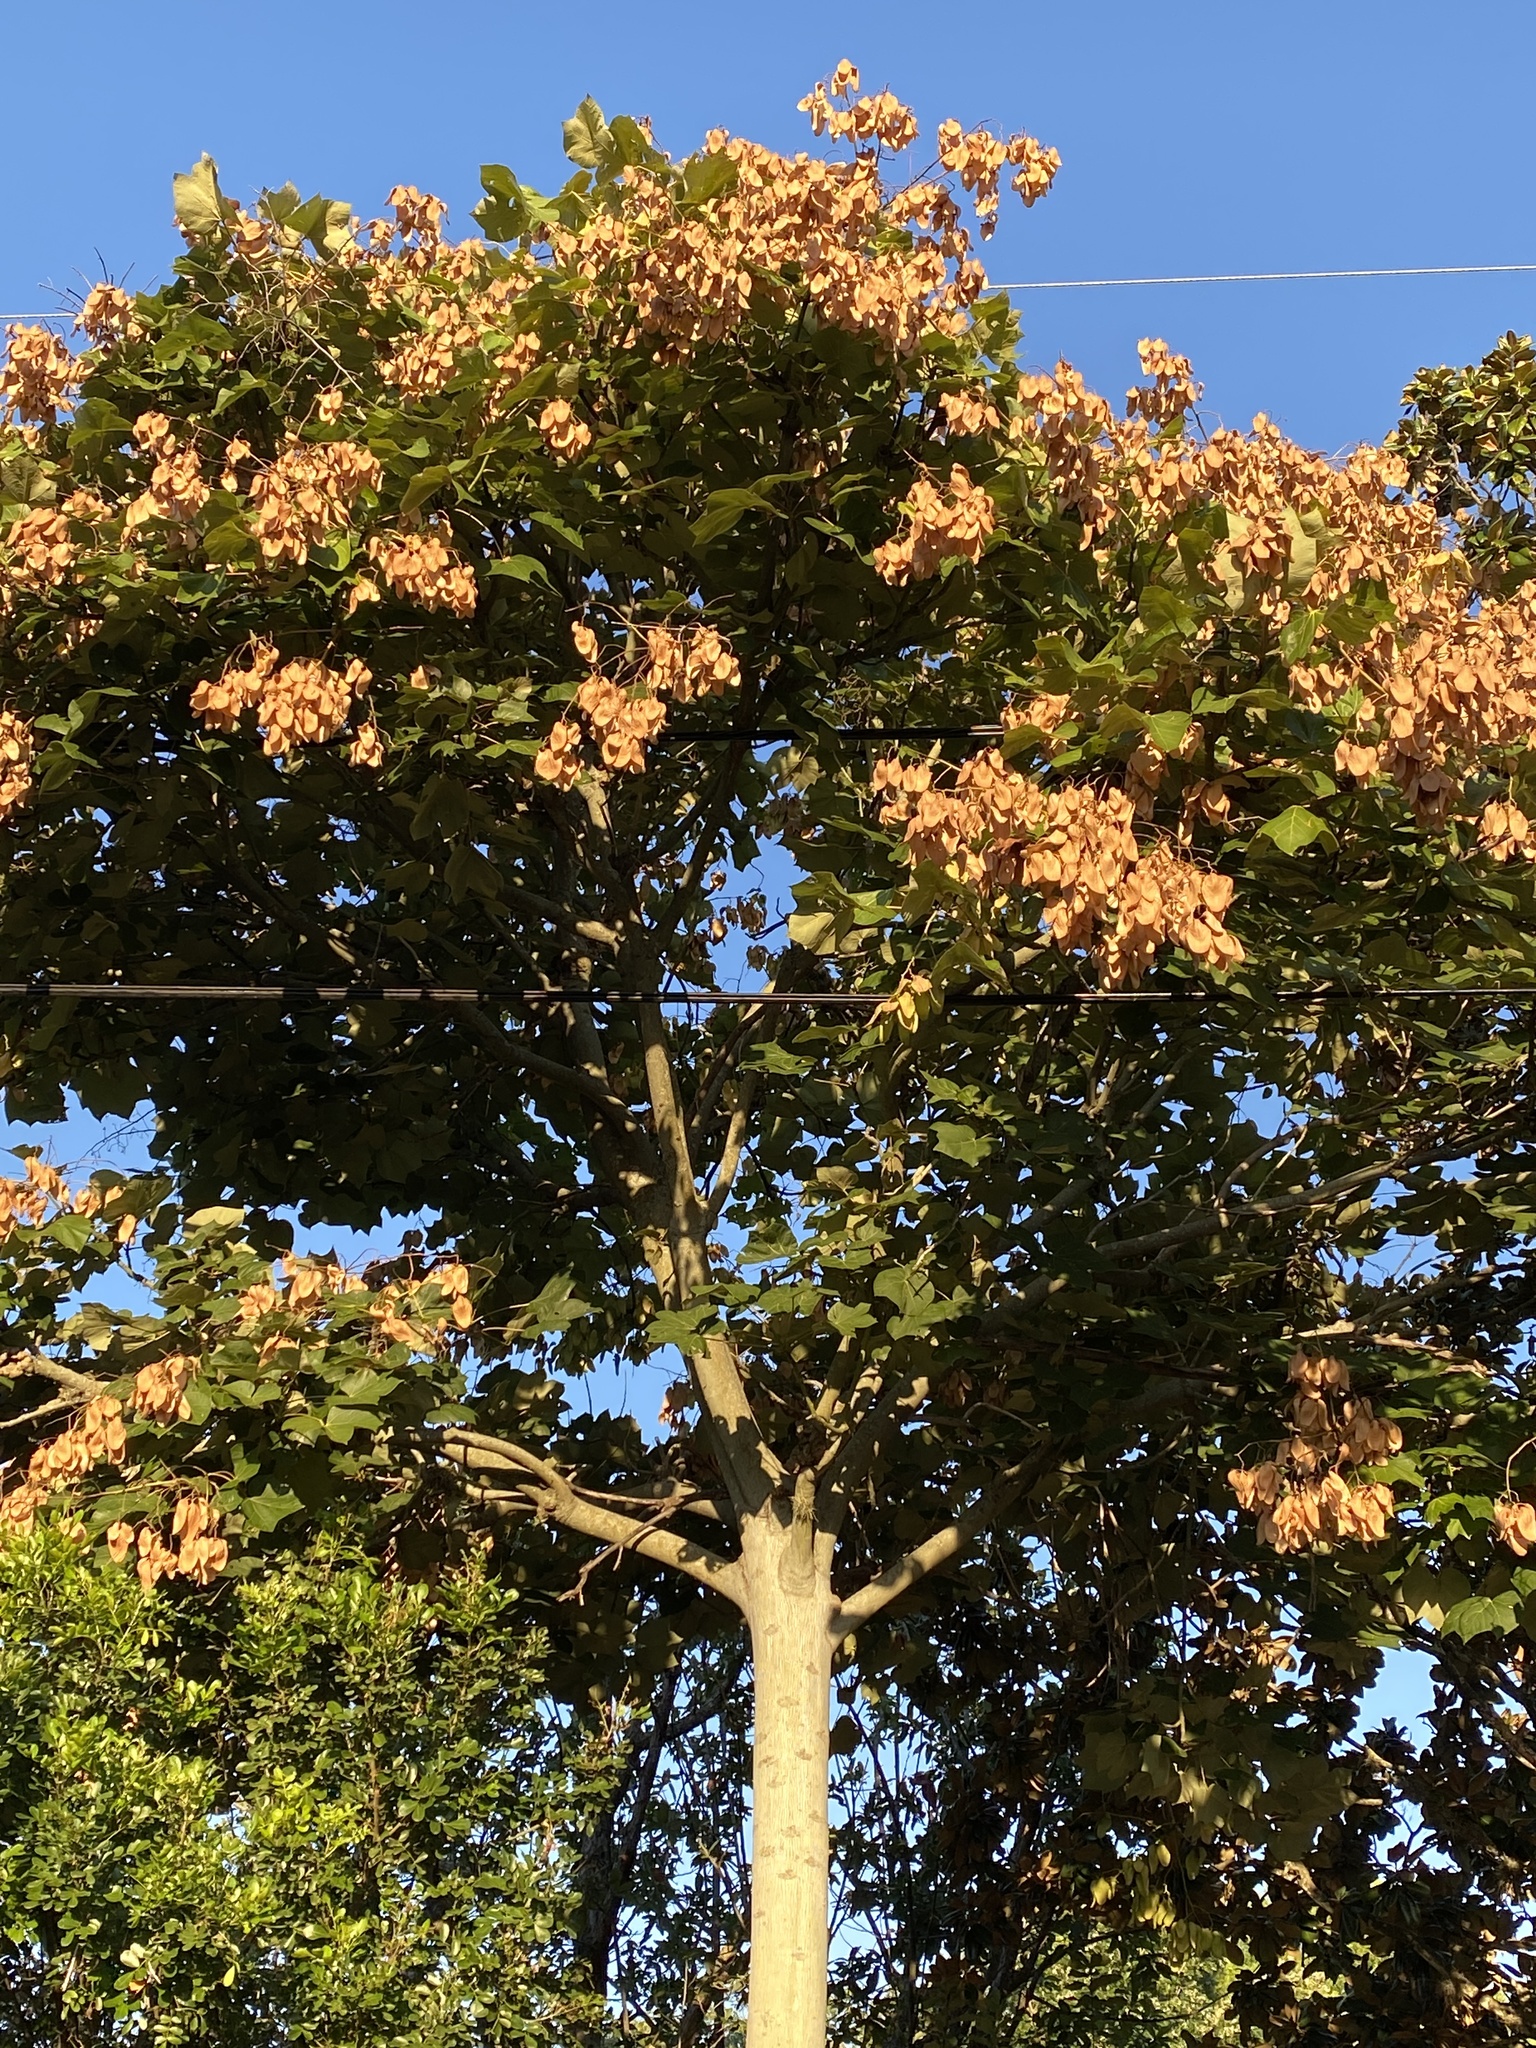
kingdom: Plantae
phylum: Tracheophyta
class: Magnoliopsida
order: Malvales
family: Malvaceae
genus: Firmiana
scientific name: Firmiana simplex
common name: Chinese parasoltree
